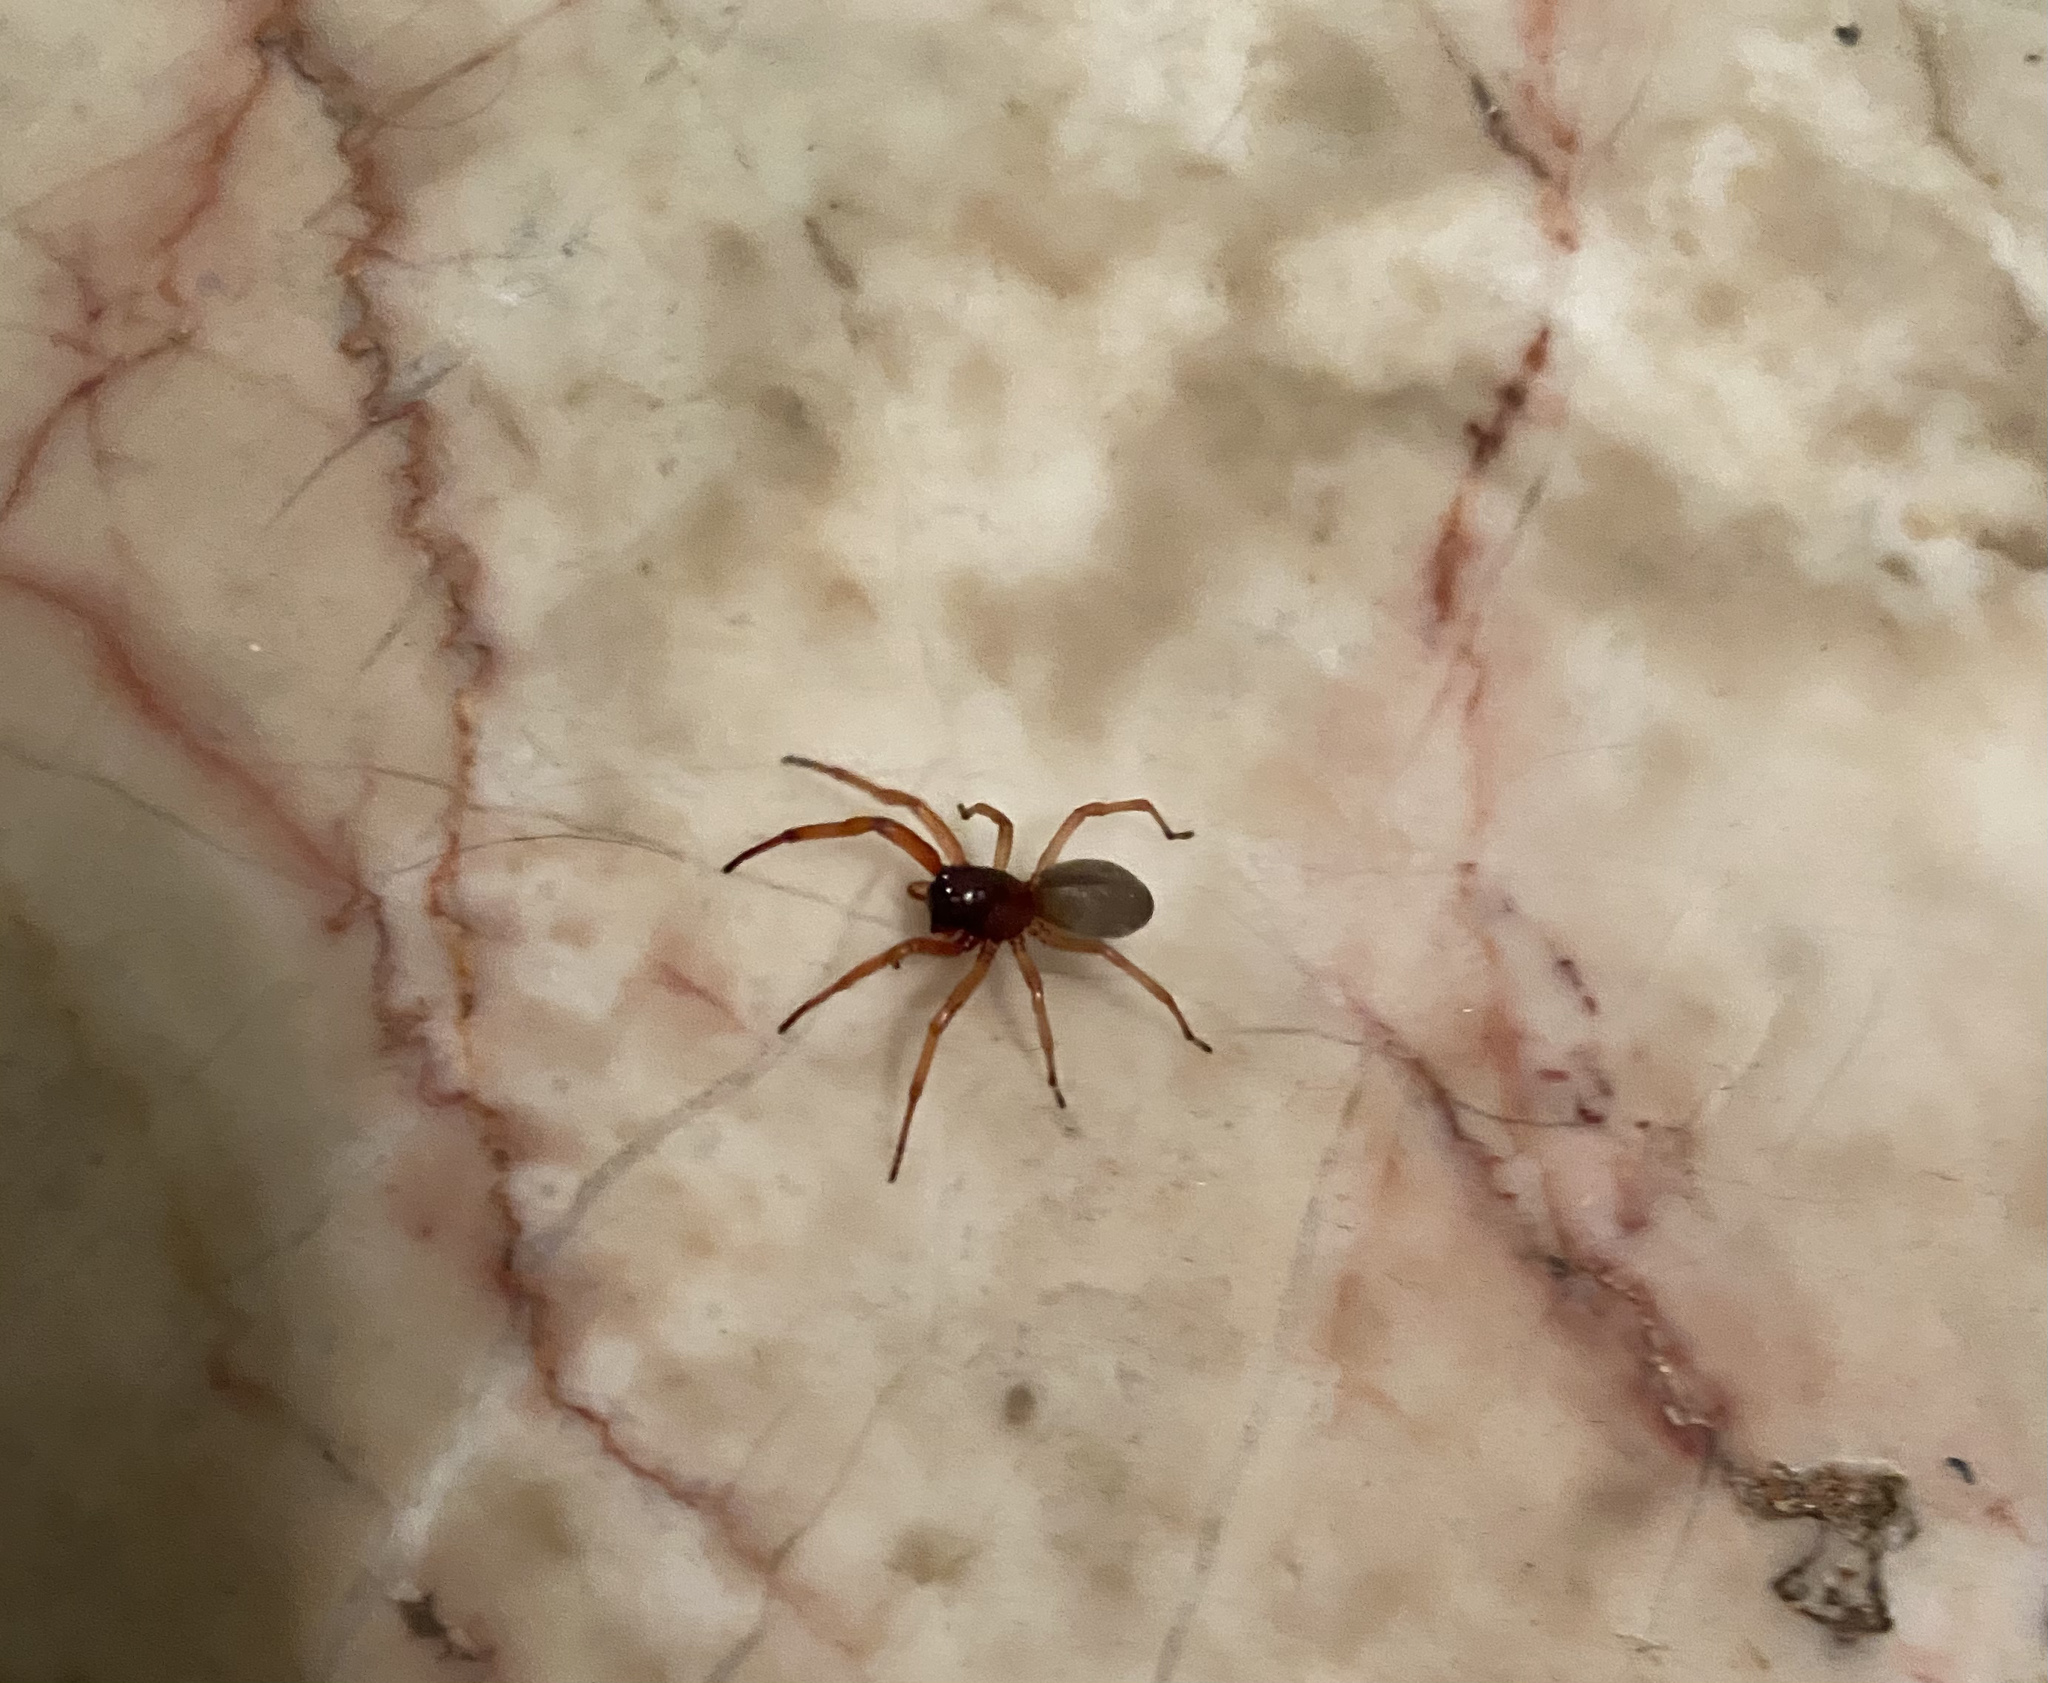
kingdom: Animalia
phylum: Arthropoda
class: Arachnida
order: Araneae
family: Trachelidae
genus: Trachelas
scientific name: Trachelas tranquillus
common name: Broad-faced sac spider
